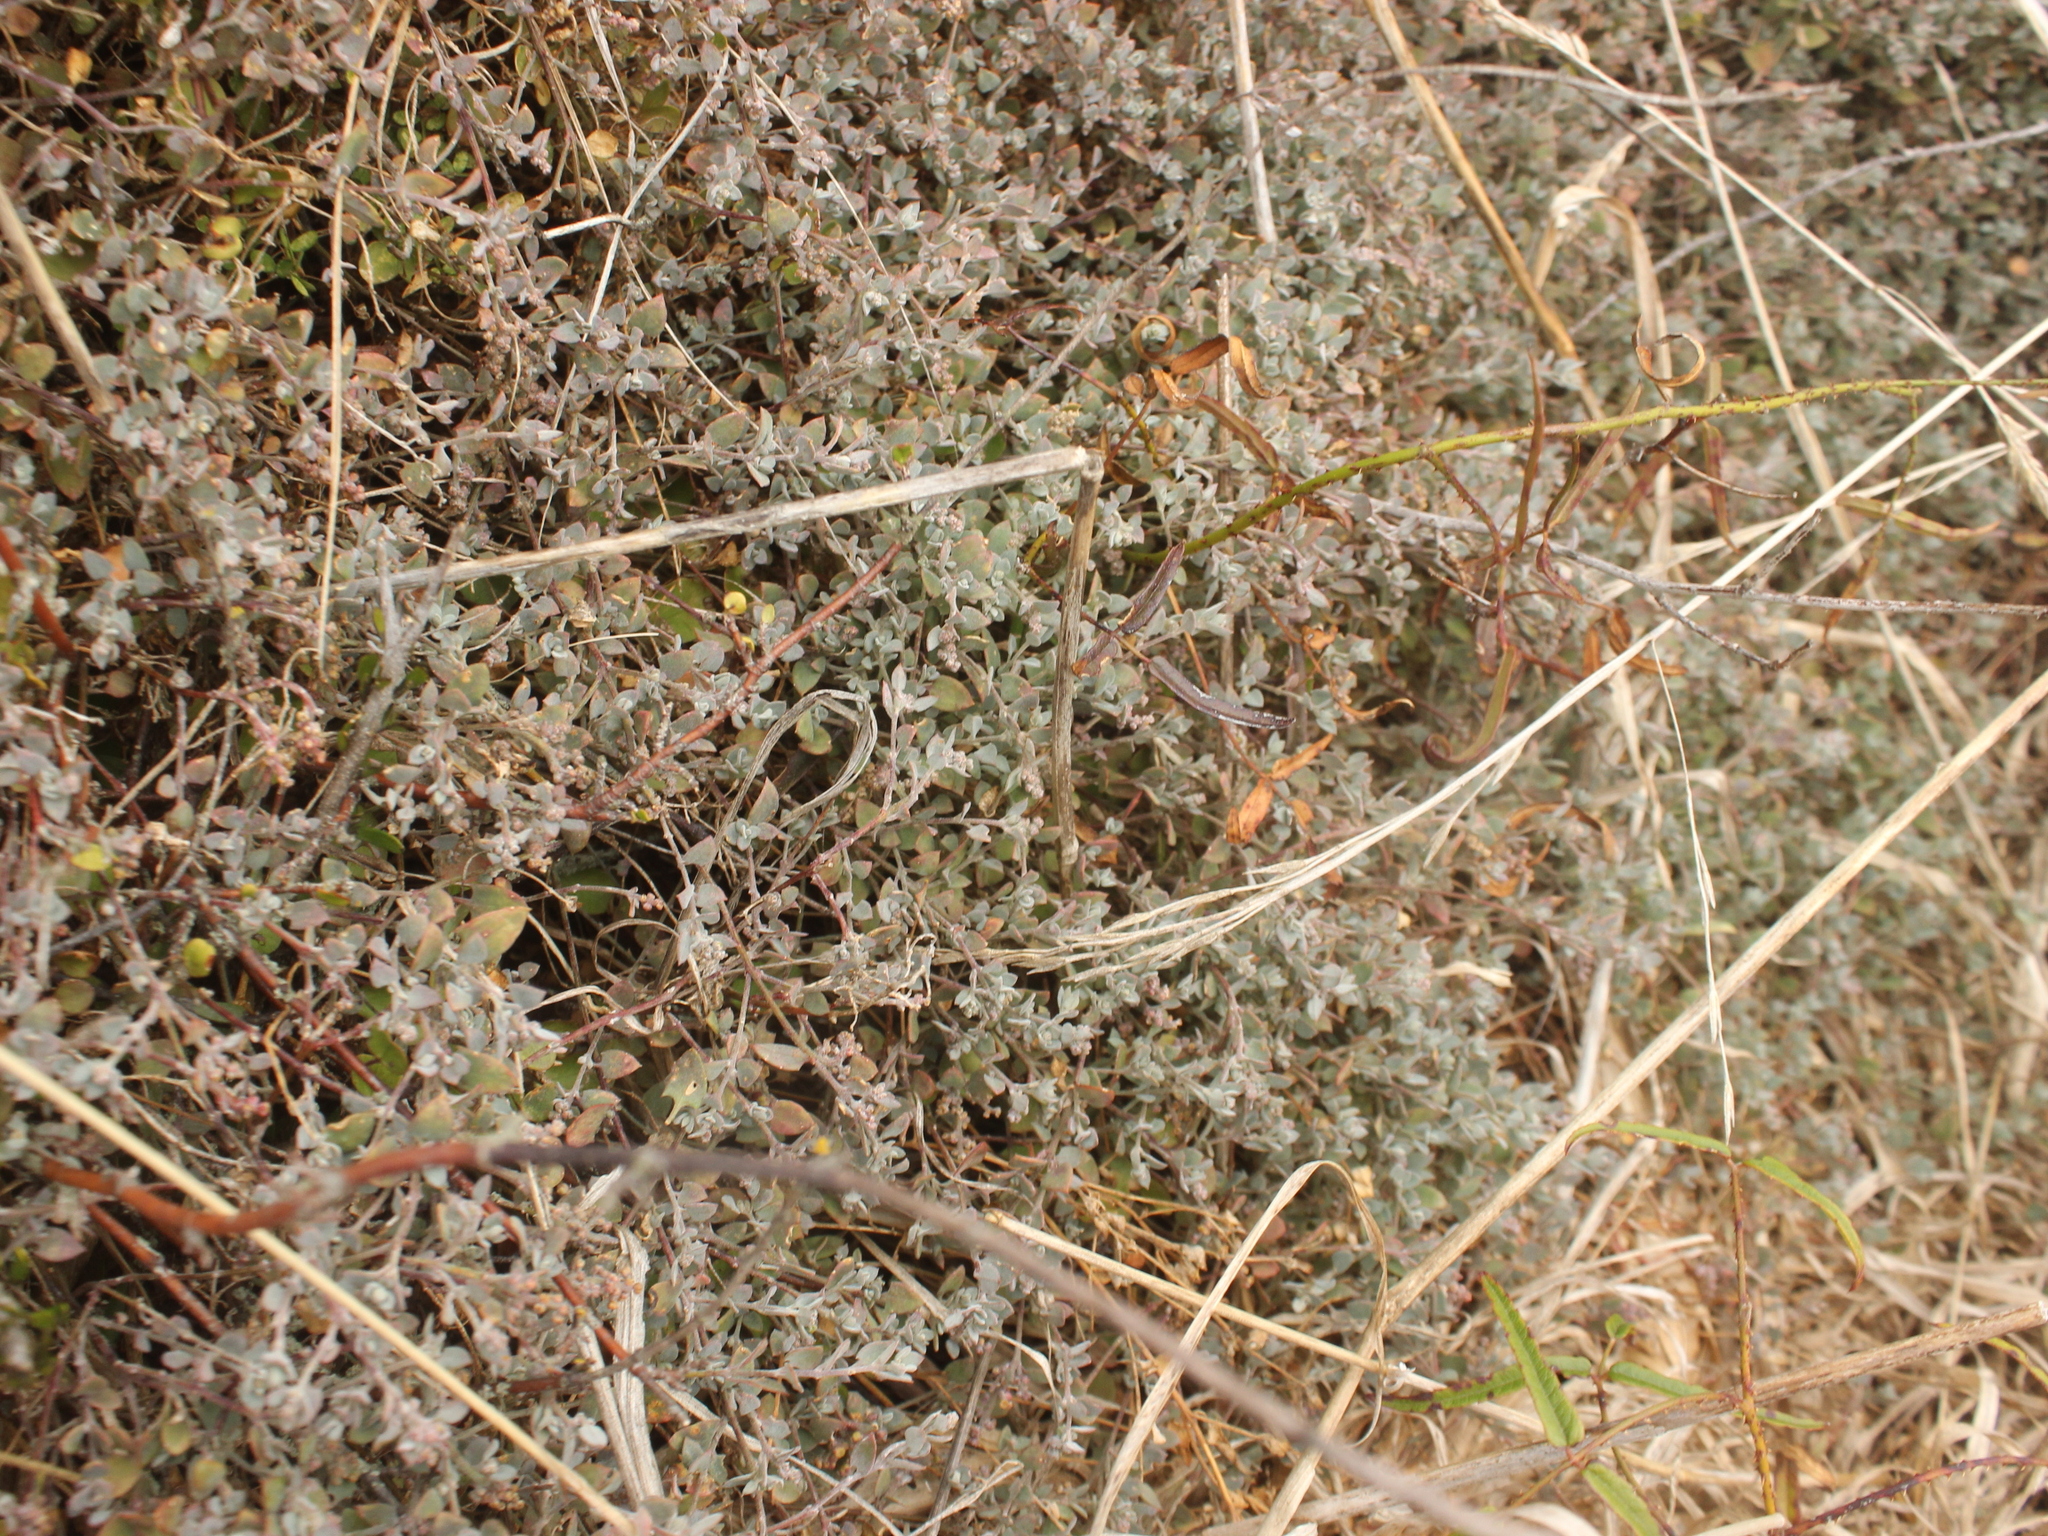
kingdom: Plantae
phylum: Tracheophyta
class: Magnoliopsida
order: Caryophyllales
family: Amaranthaceae
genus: Chenopodium
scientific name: Chenopodium triandrum
